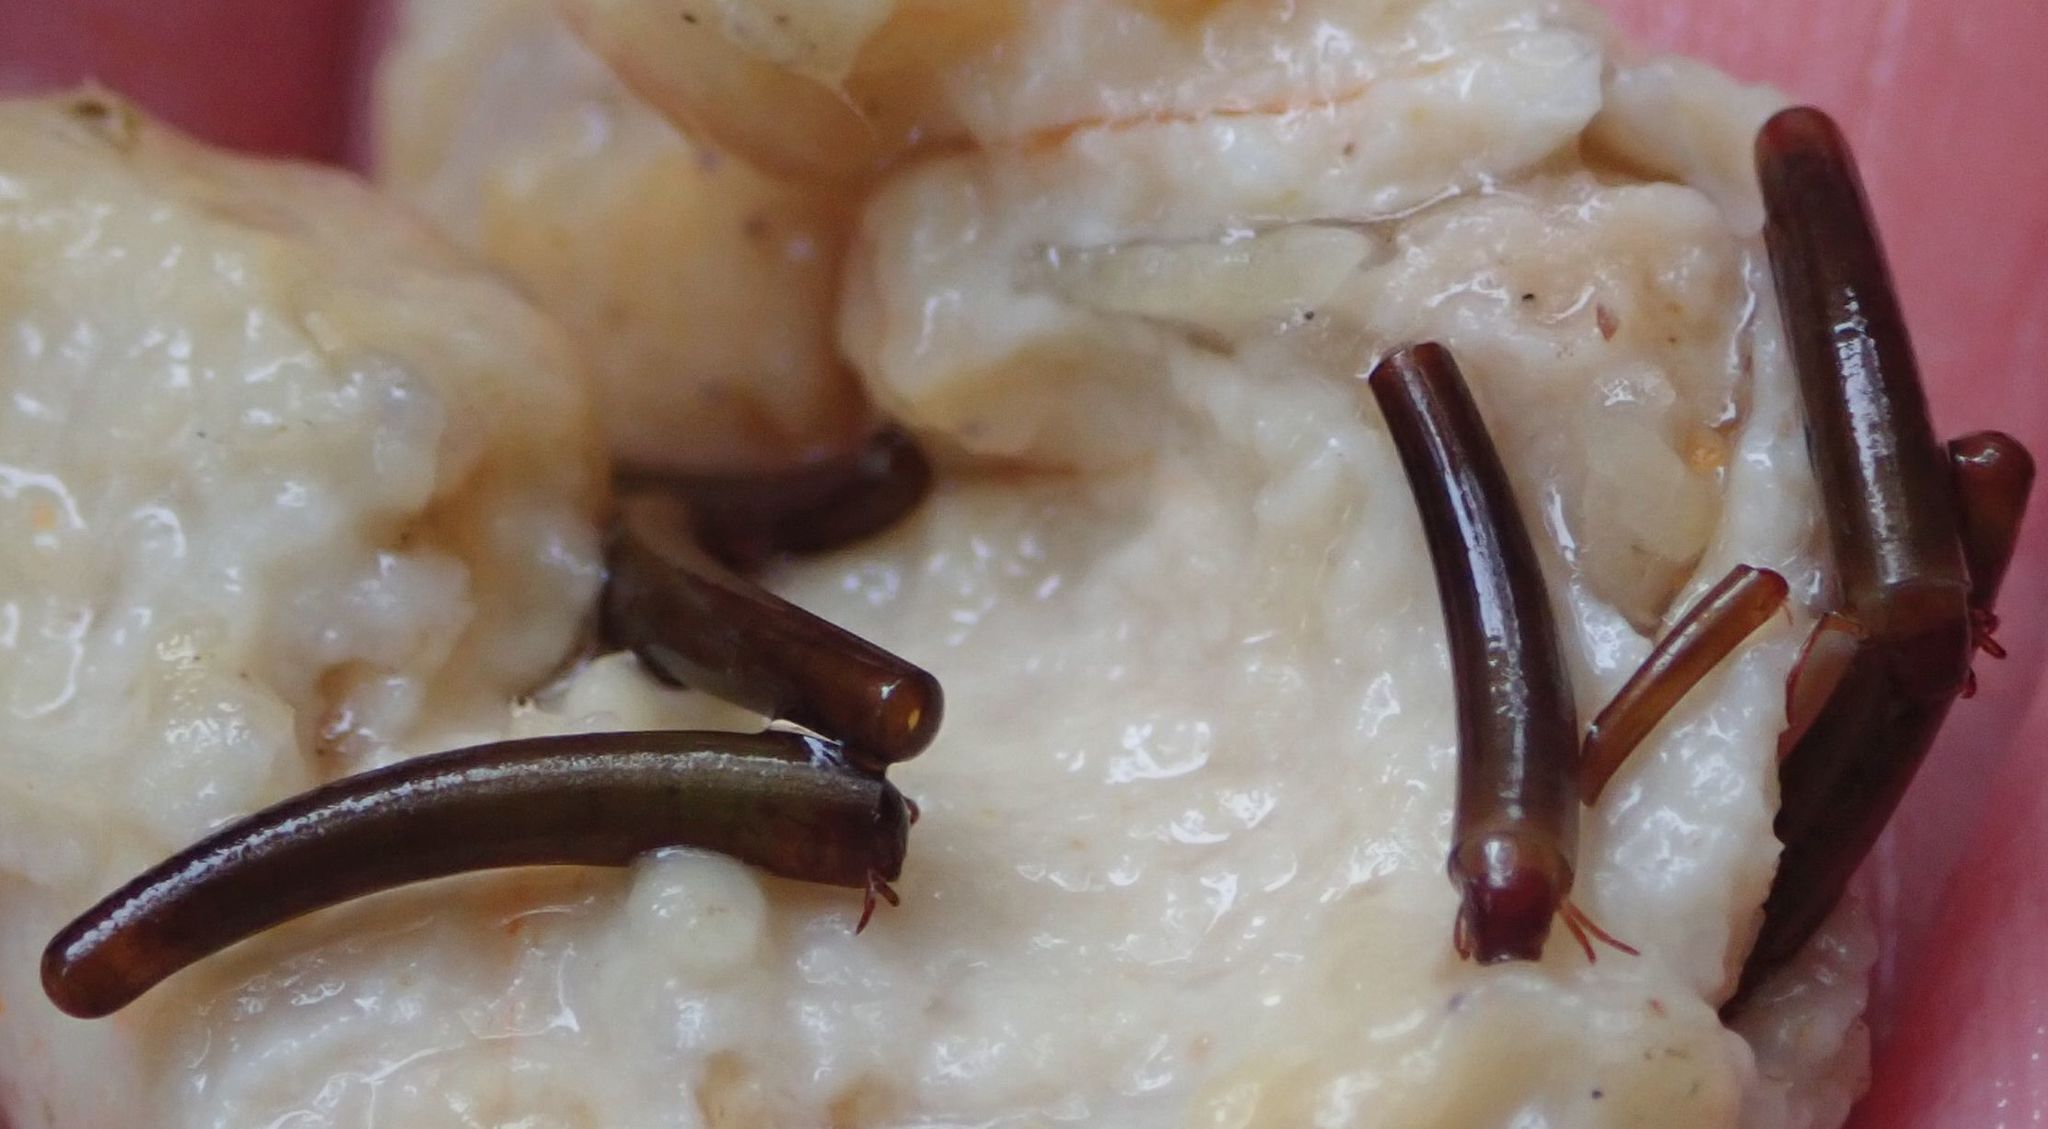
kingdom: Animalia
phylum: Arthropoda
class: Insecta
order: Trichoptera
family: Conoesucidae
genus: Olinga
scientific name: Olinga feredayi
